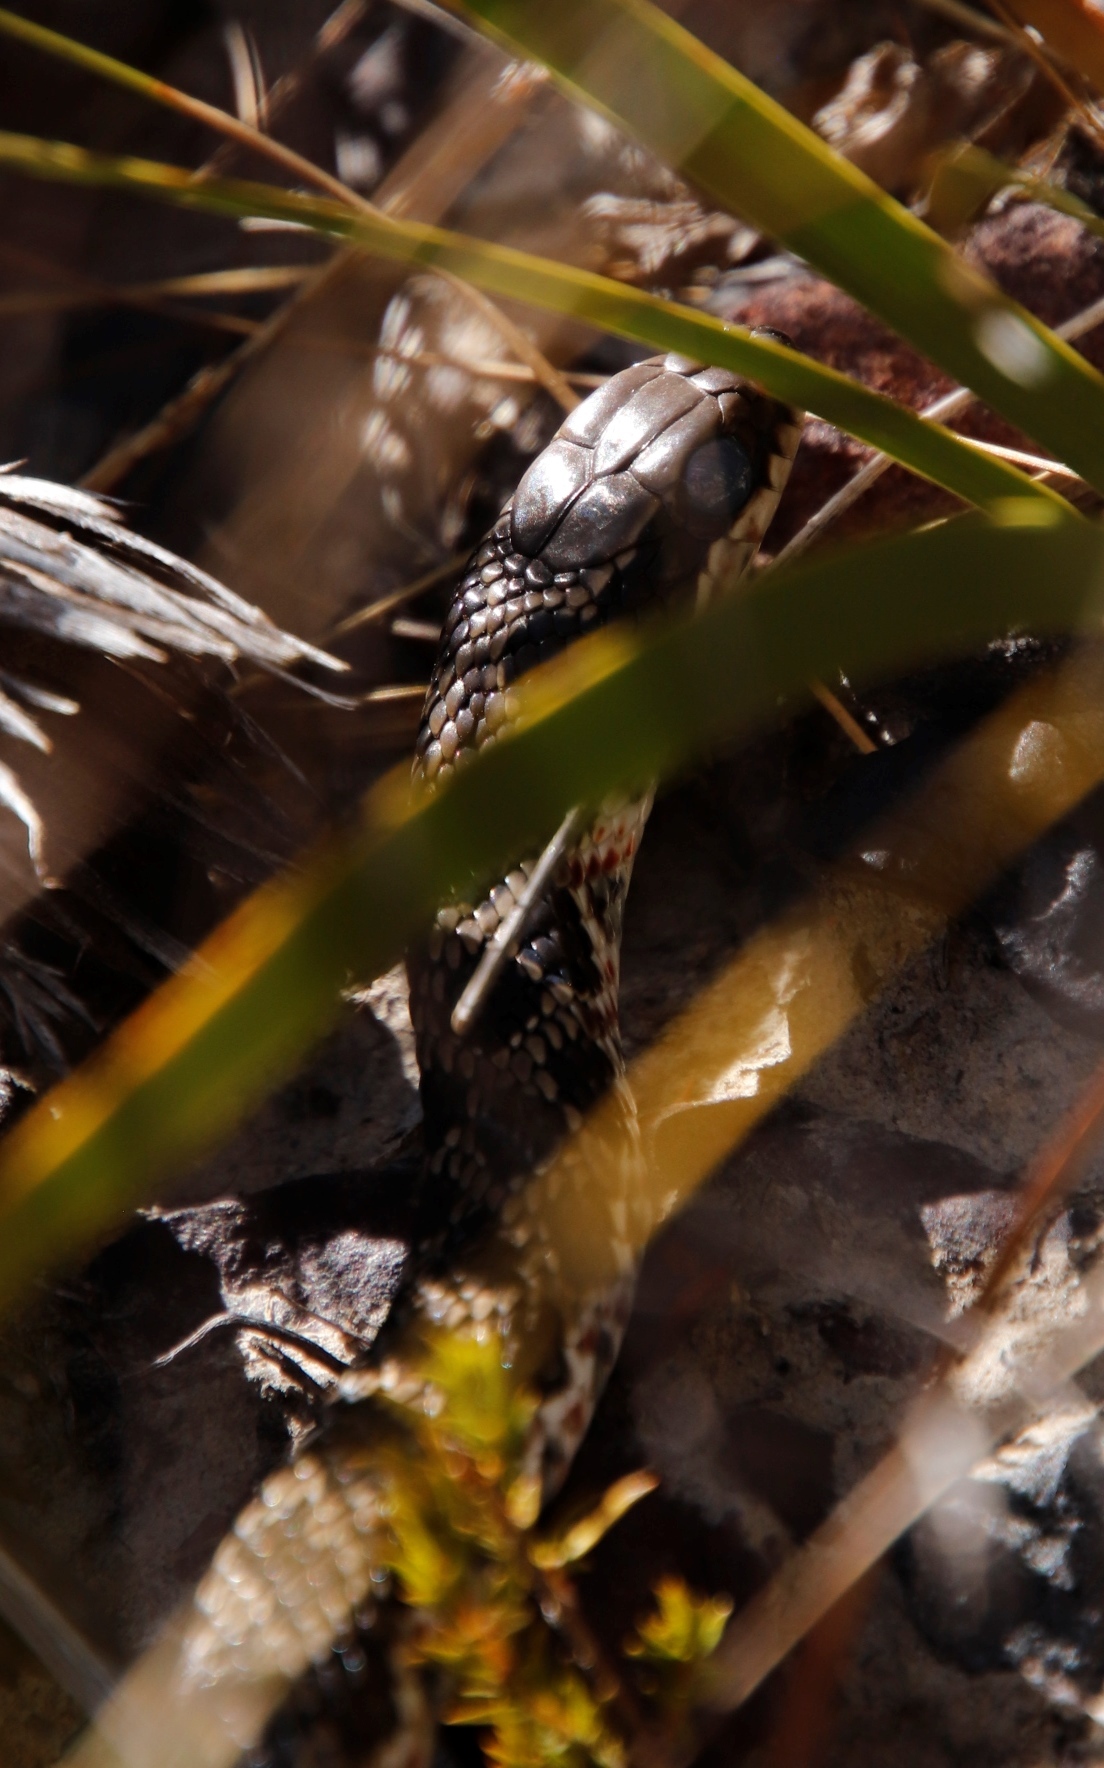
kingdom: Animalia
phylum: Chordata
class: Squamata
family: Psammophiidae
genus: Psammophylax
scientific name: Psammophylax rhombeatus
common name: Rhombic skaapsteker
